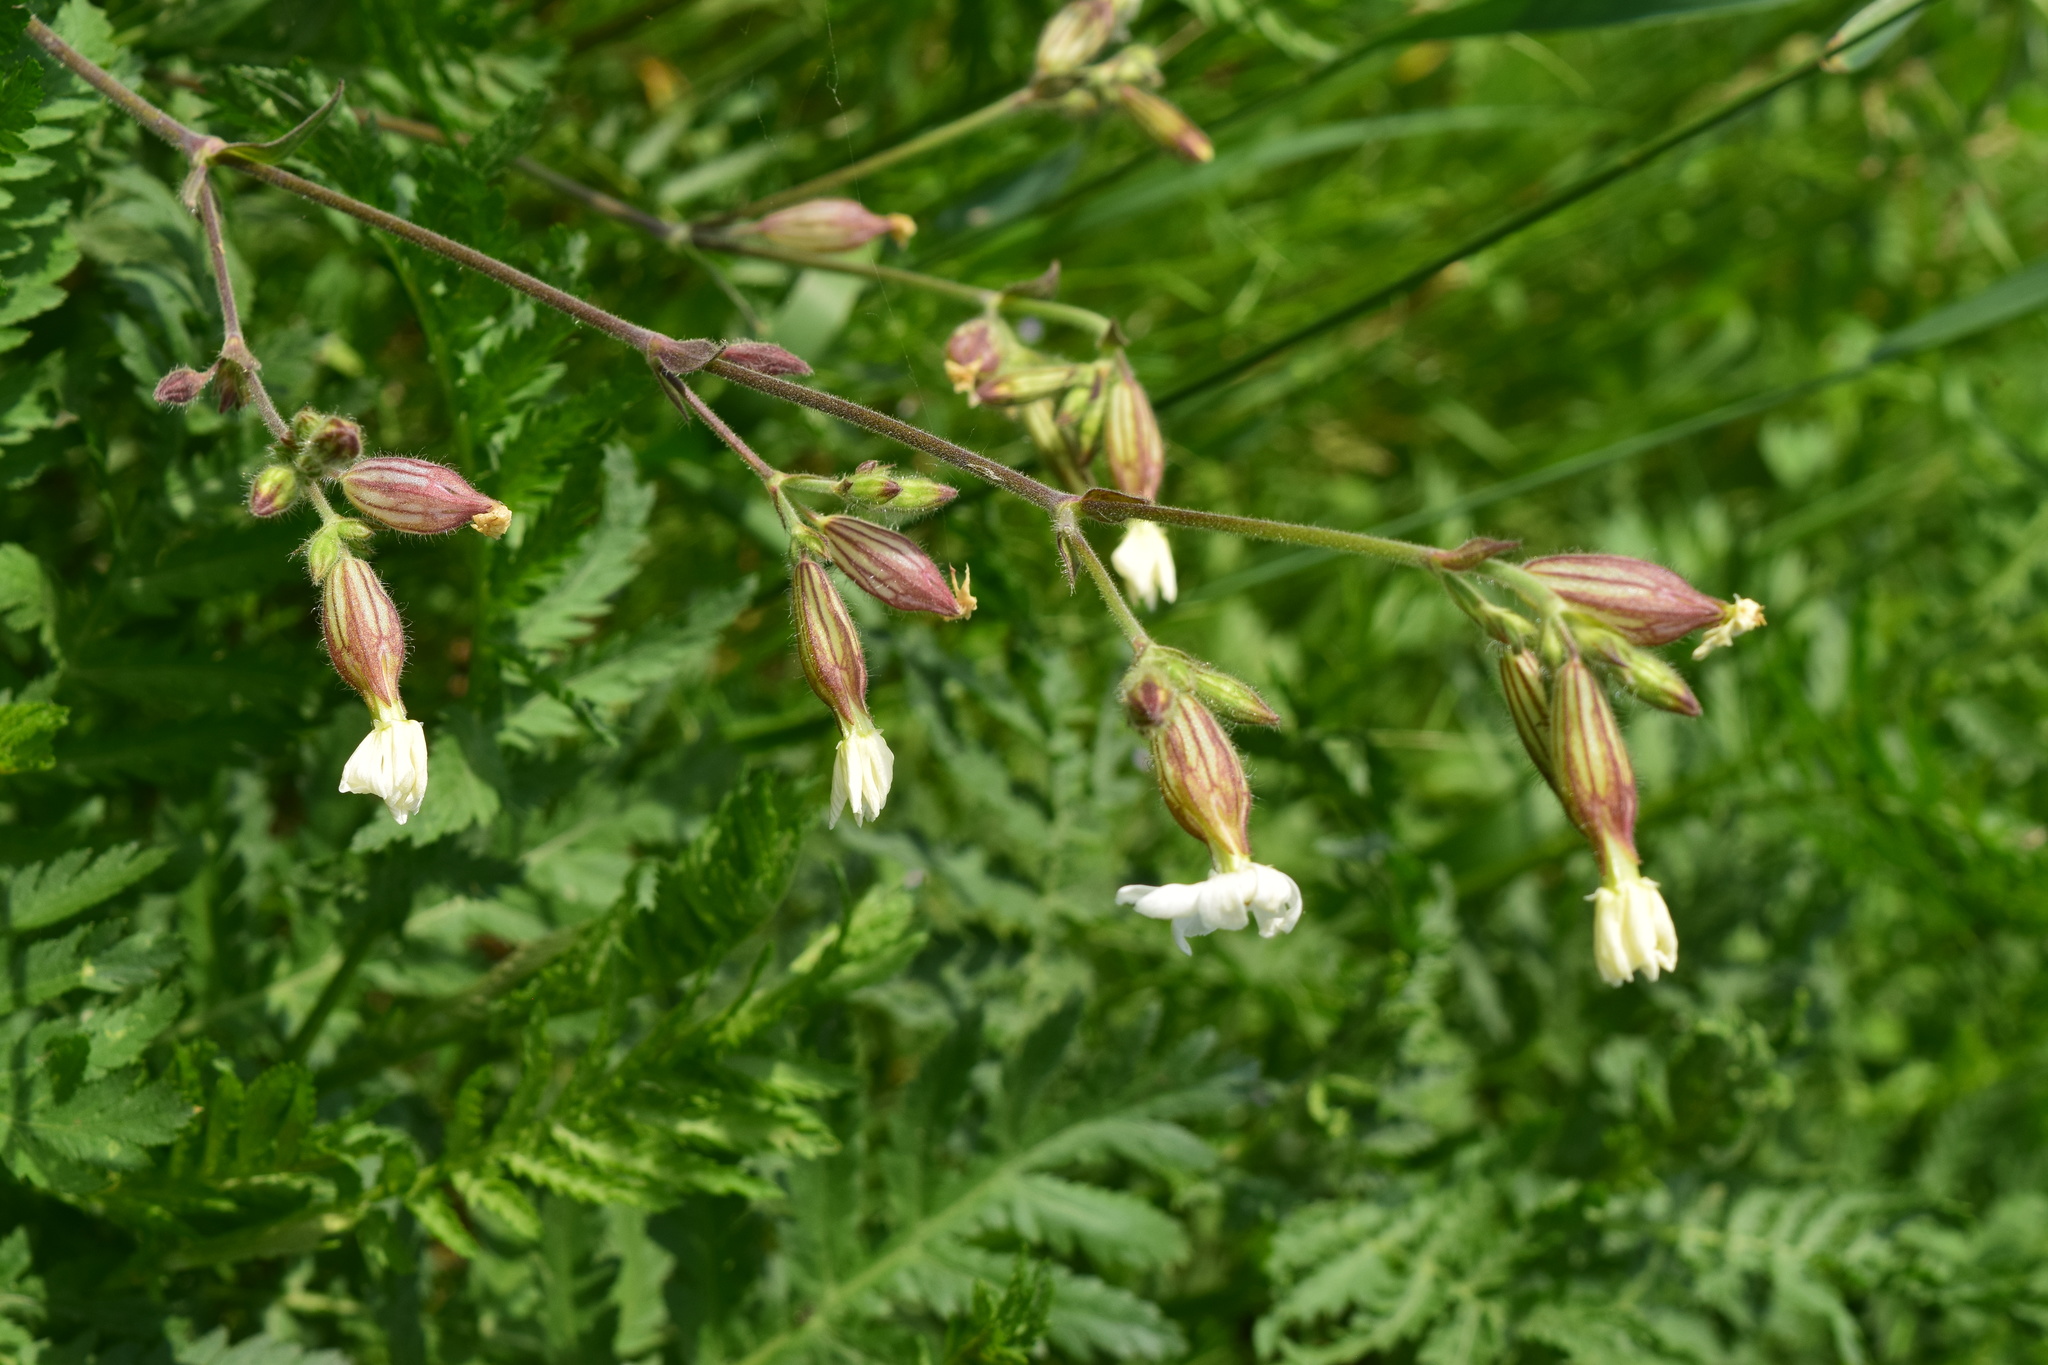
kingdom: Plantae
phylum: Tracheophyta
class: Magnoliopsida
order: Caryophyllales
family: Caryophyllaceae
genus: Silene
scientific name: Silene latifolia
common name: White campion
